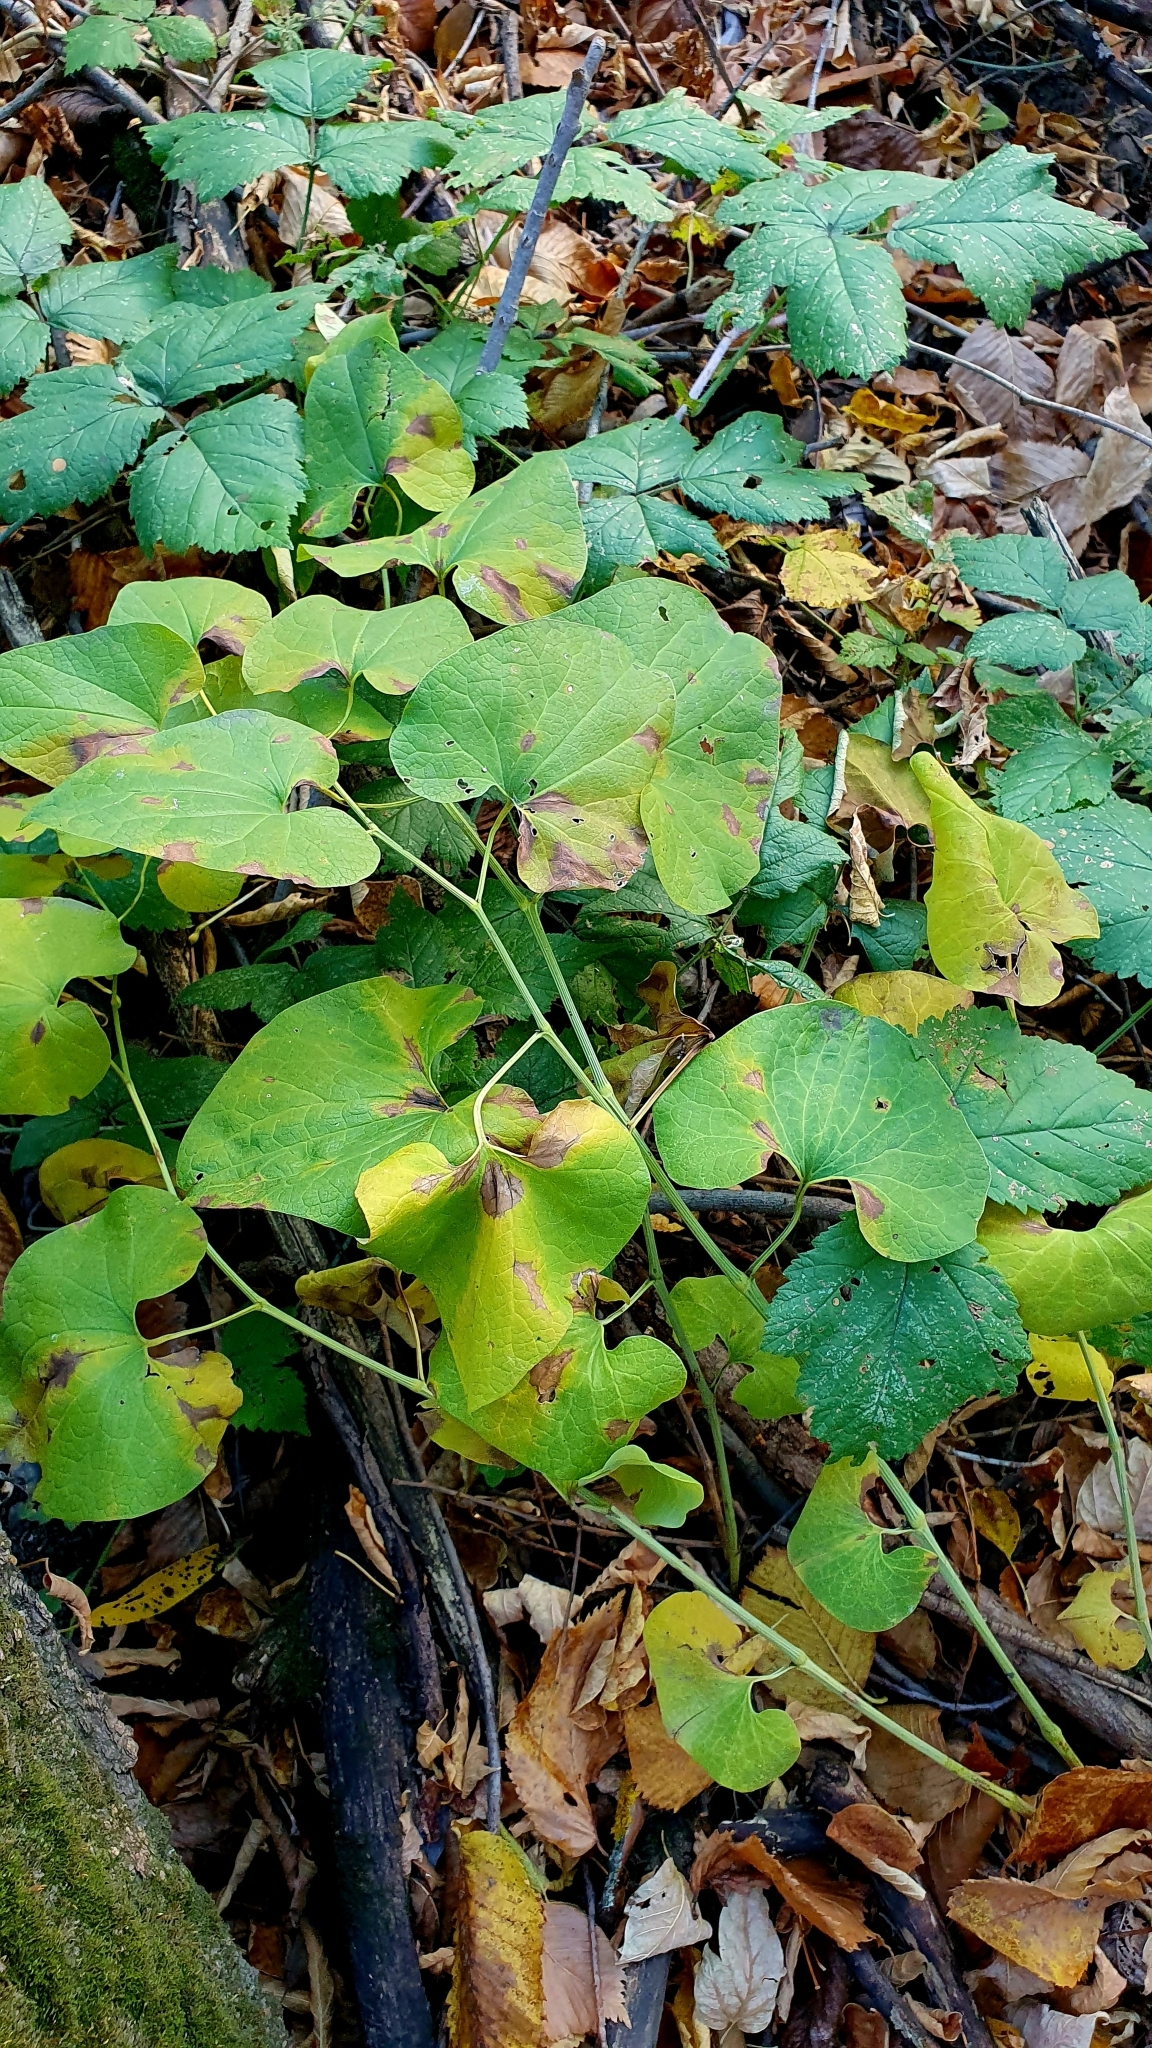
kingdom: Plantae
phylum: Tracheophyta
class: Magnoliopsida
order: Piperales
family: Aristolochiaceae
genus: Aristolochia
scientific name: Aristolochia clematitis
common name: Birthwort
